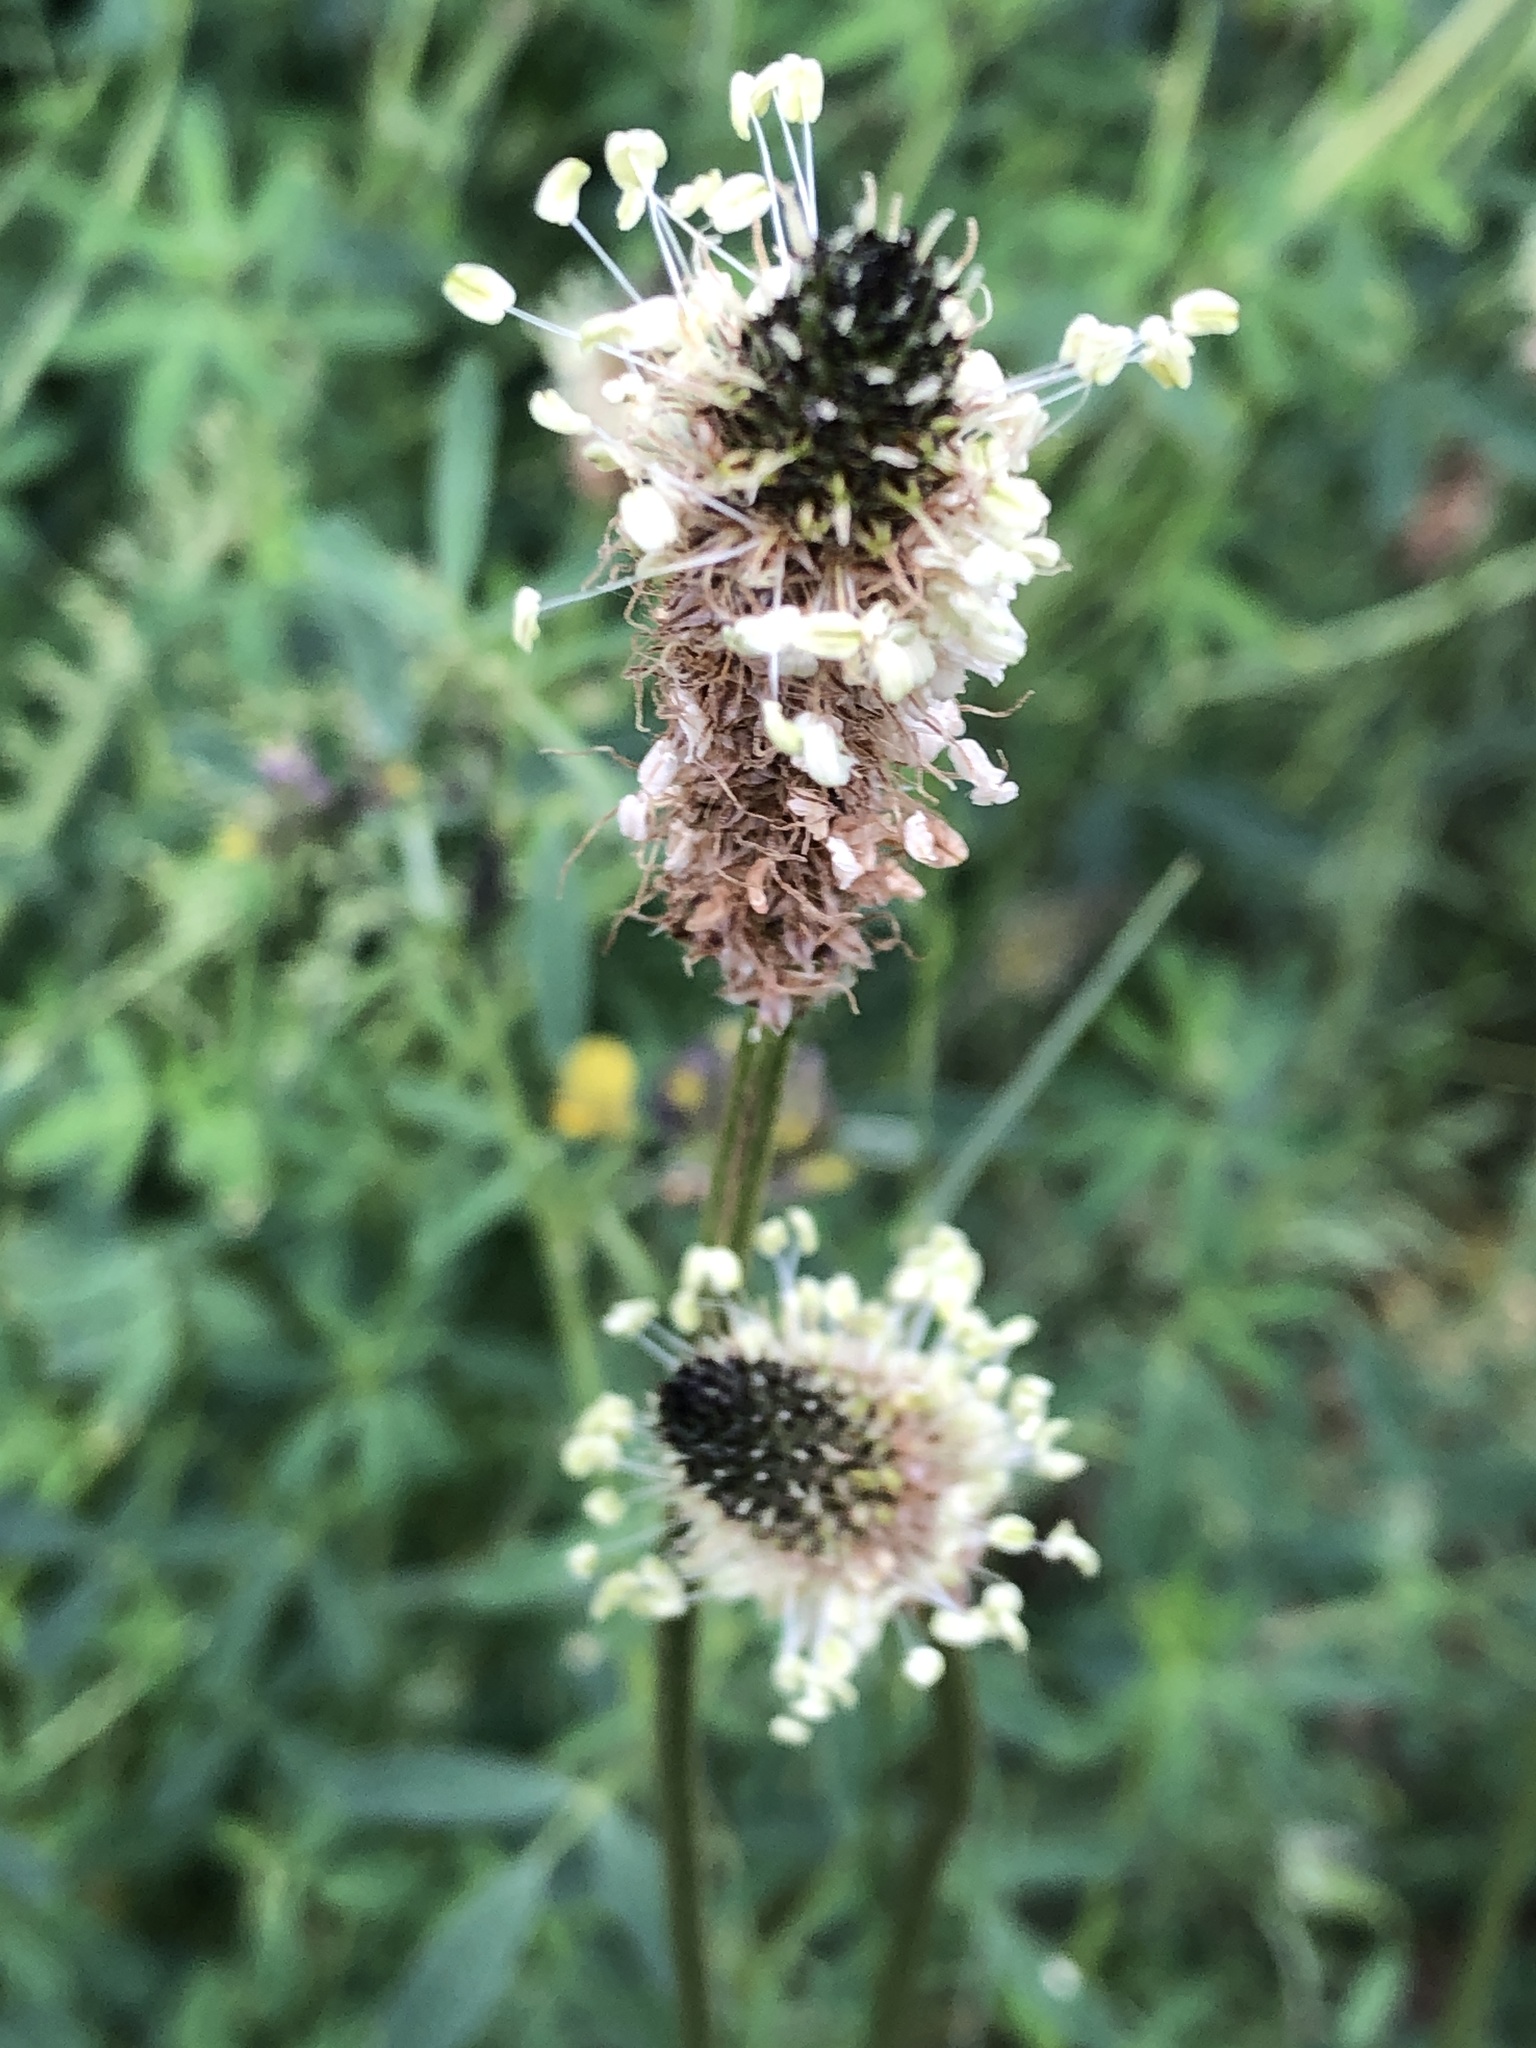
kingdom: Plantae
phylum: Tracheophyta
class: Magnoliopsida
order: Lamiales
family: Plantaginaceae
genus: Plantago
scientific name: Plantago lanceolata
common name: Ribwort plantain
